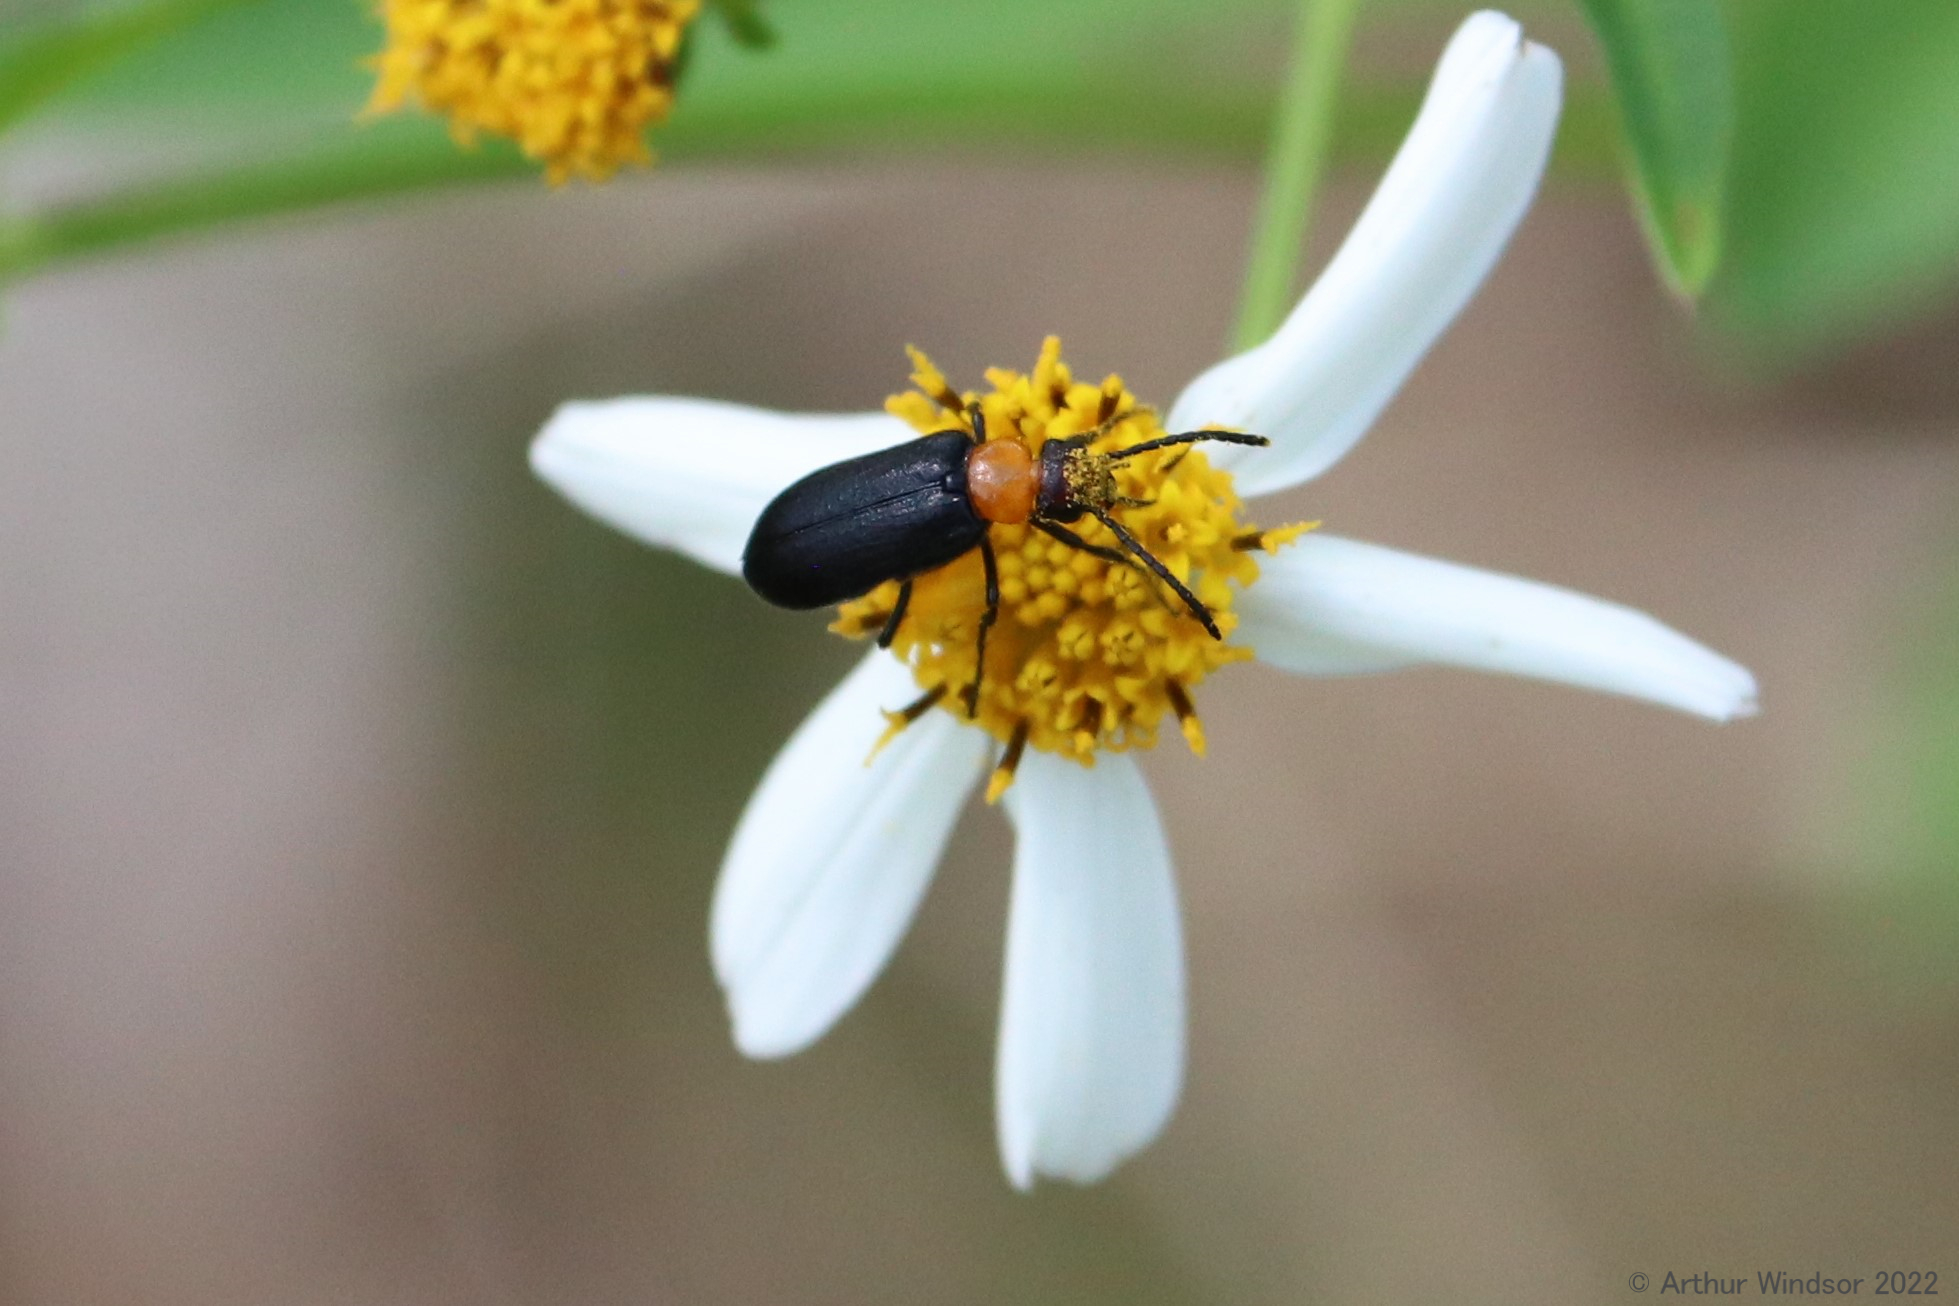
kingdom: Animalia
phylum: Arthropoda
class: Insecta
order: Coleoptera
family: Meloidae
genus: Nemognatha
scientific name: Nemognatha nemorensis
